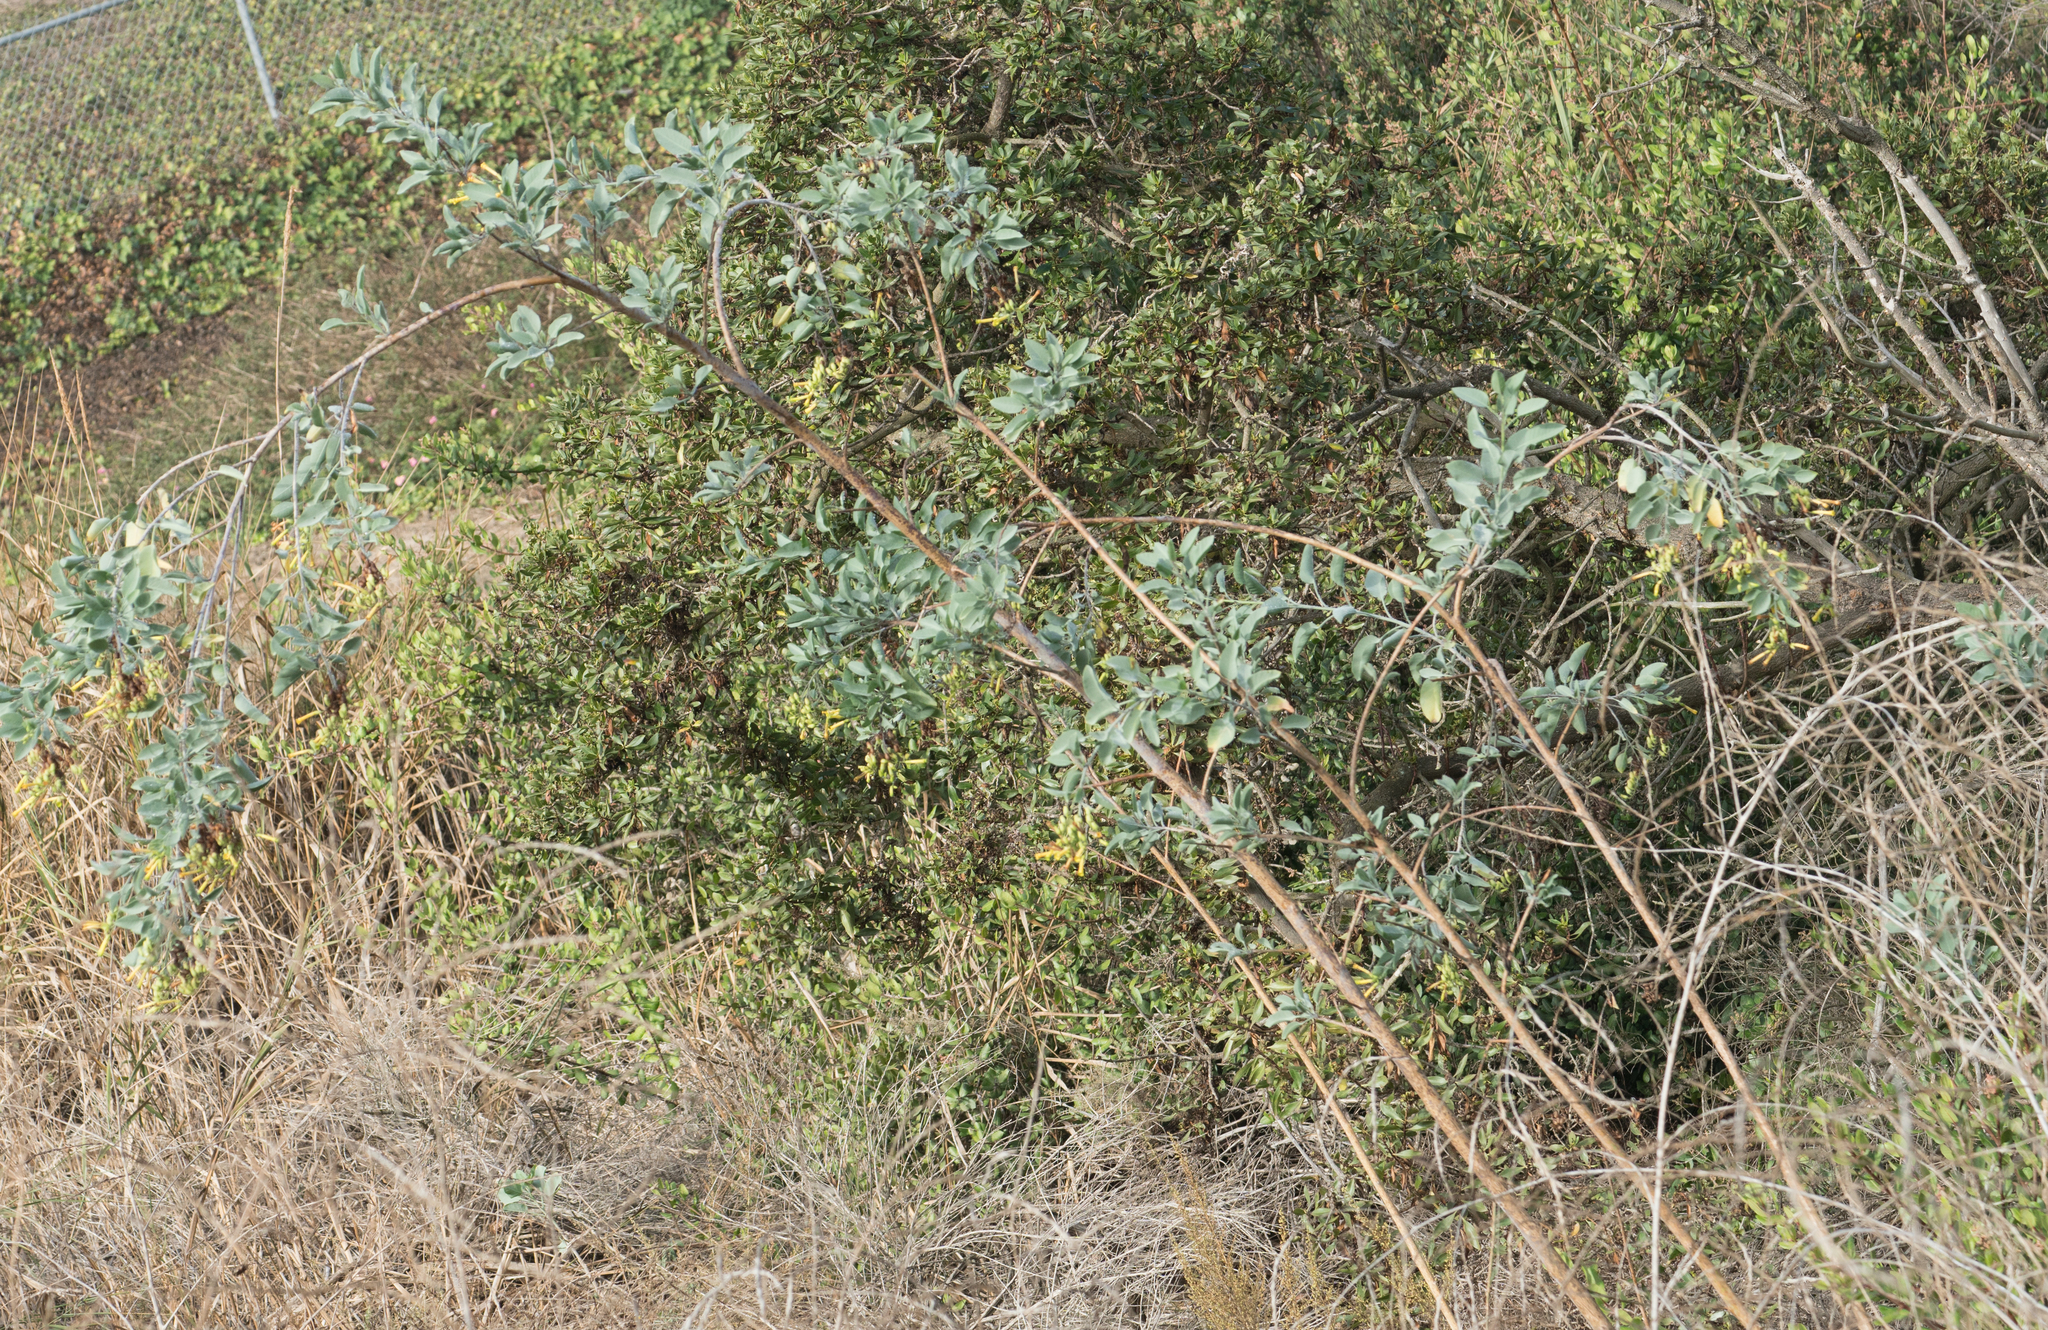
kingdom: Plantae
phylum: Tracheophyta
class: Magnoliopsida
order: Solanales
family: Solanaceae
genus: Nicotiana
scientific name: Nicotiana glauca
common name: Tree tobacco
